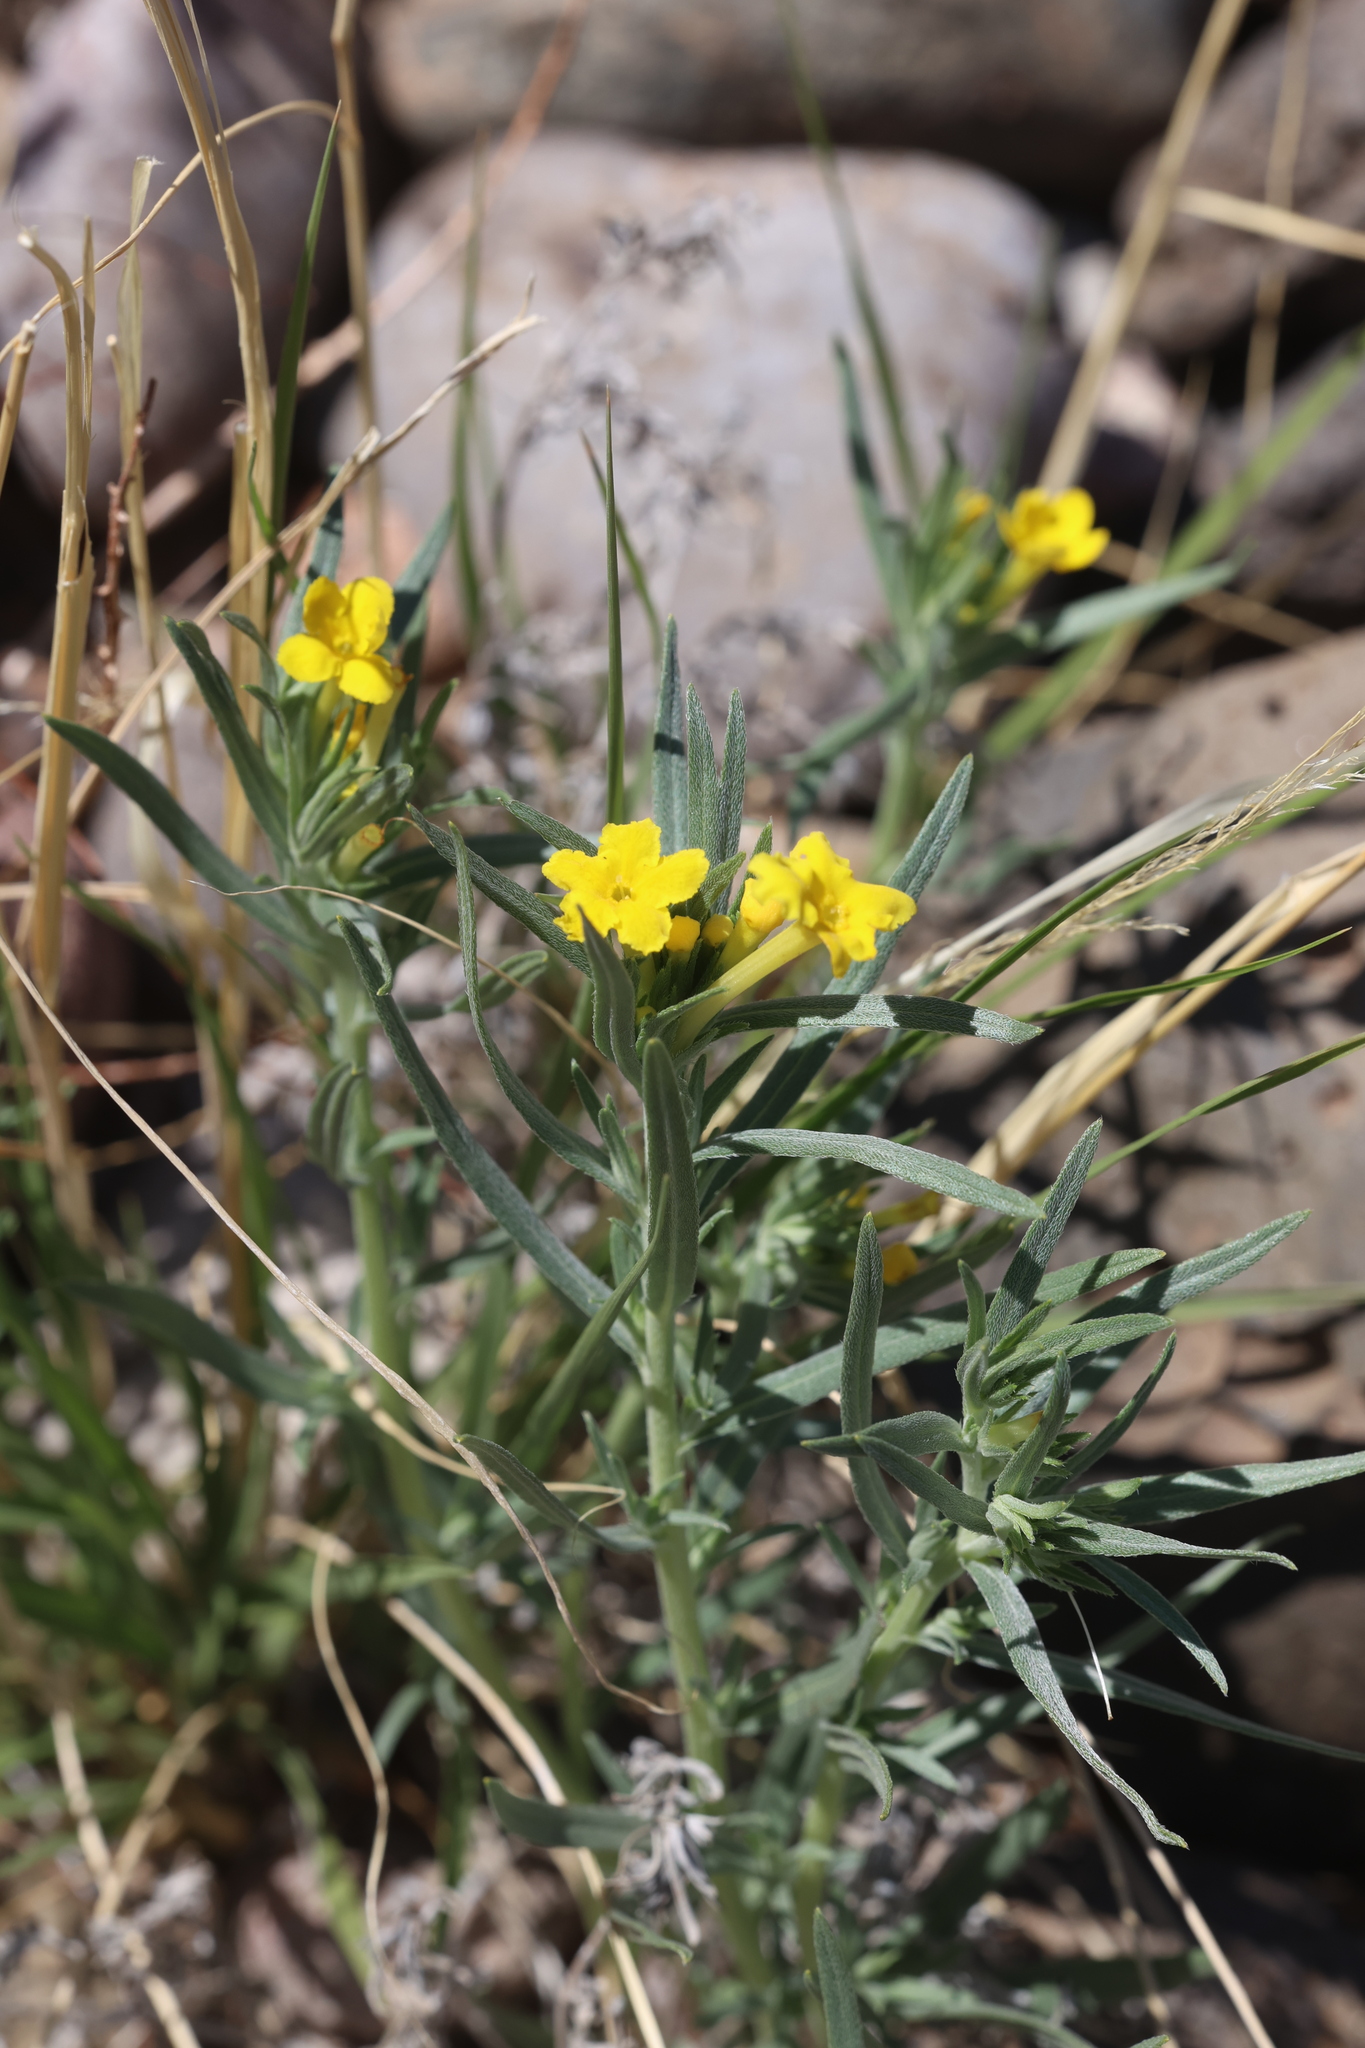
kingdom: Plantae
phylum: Tracheophyta
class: Magnoliopsida
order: Boraginales
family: Boraginaceae
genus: Lithospermum
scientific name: Lithospermum incisum
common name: Fringed gromwell
